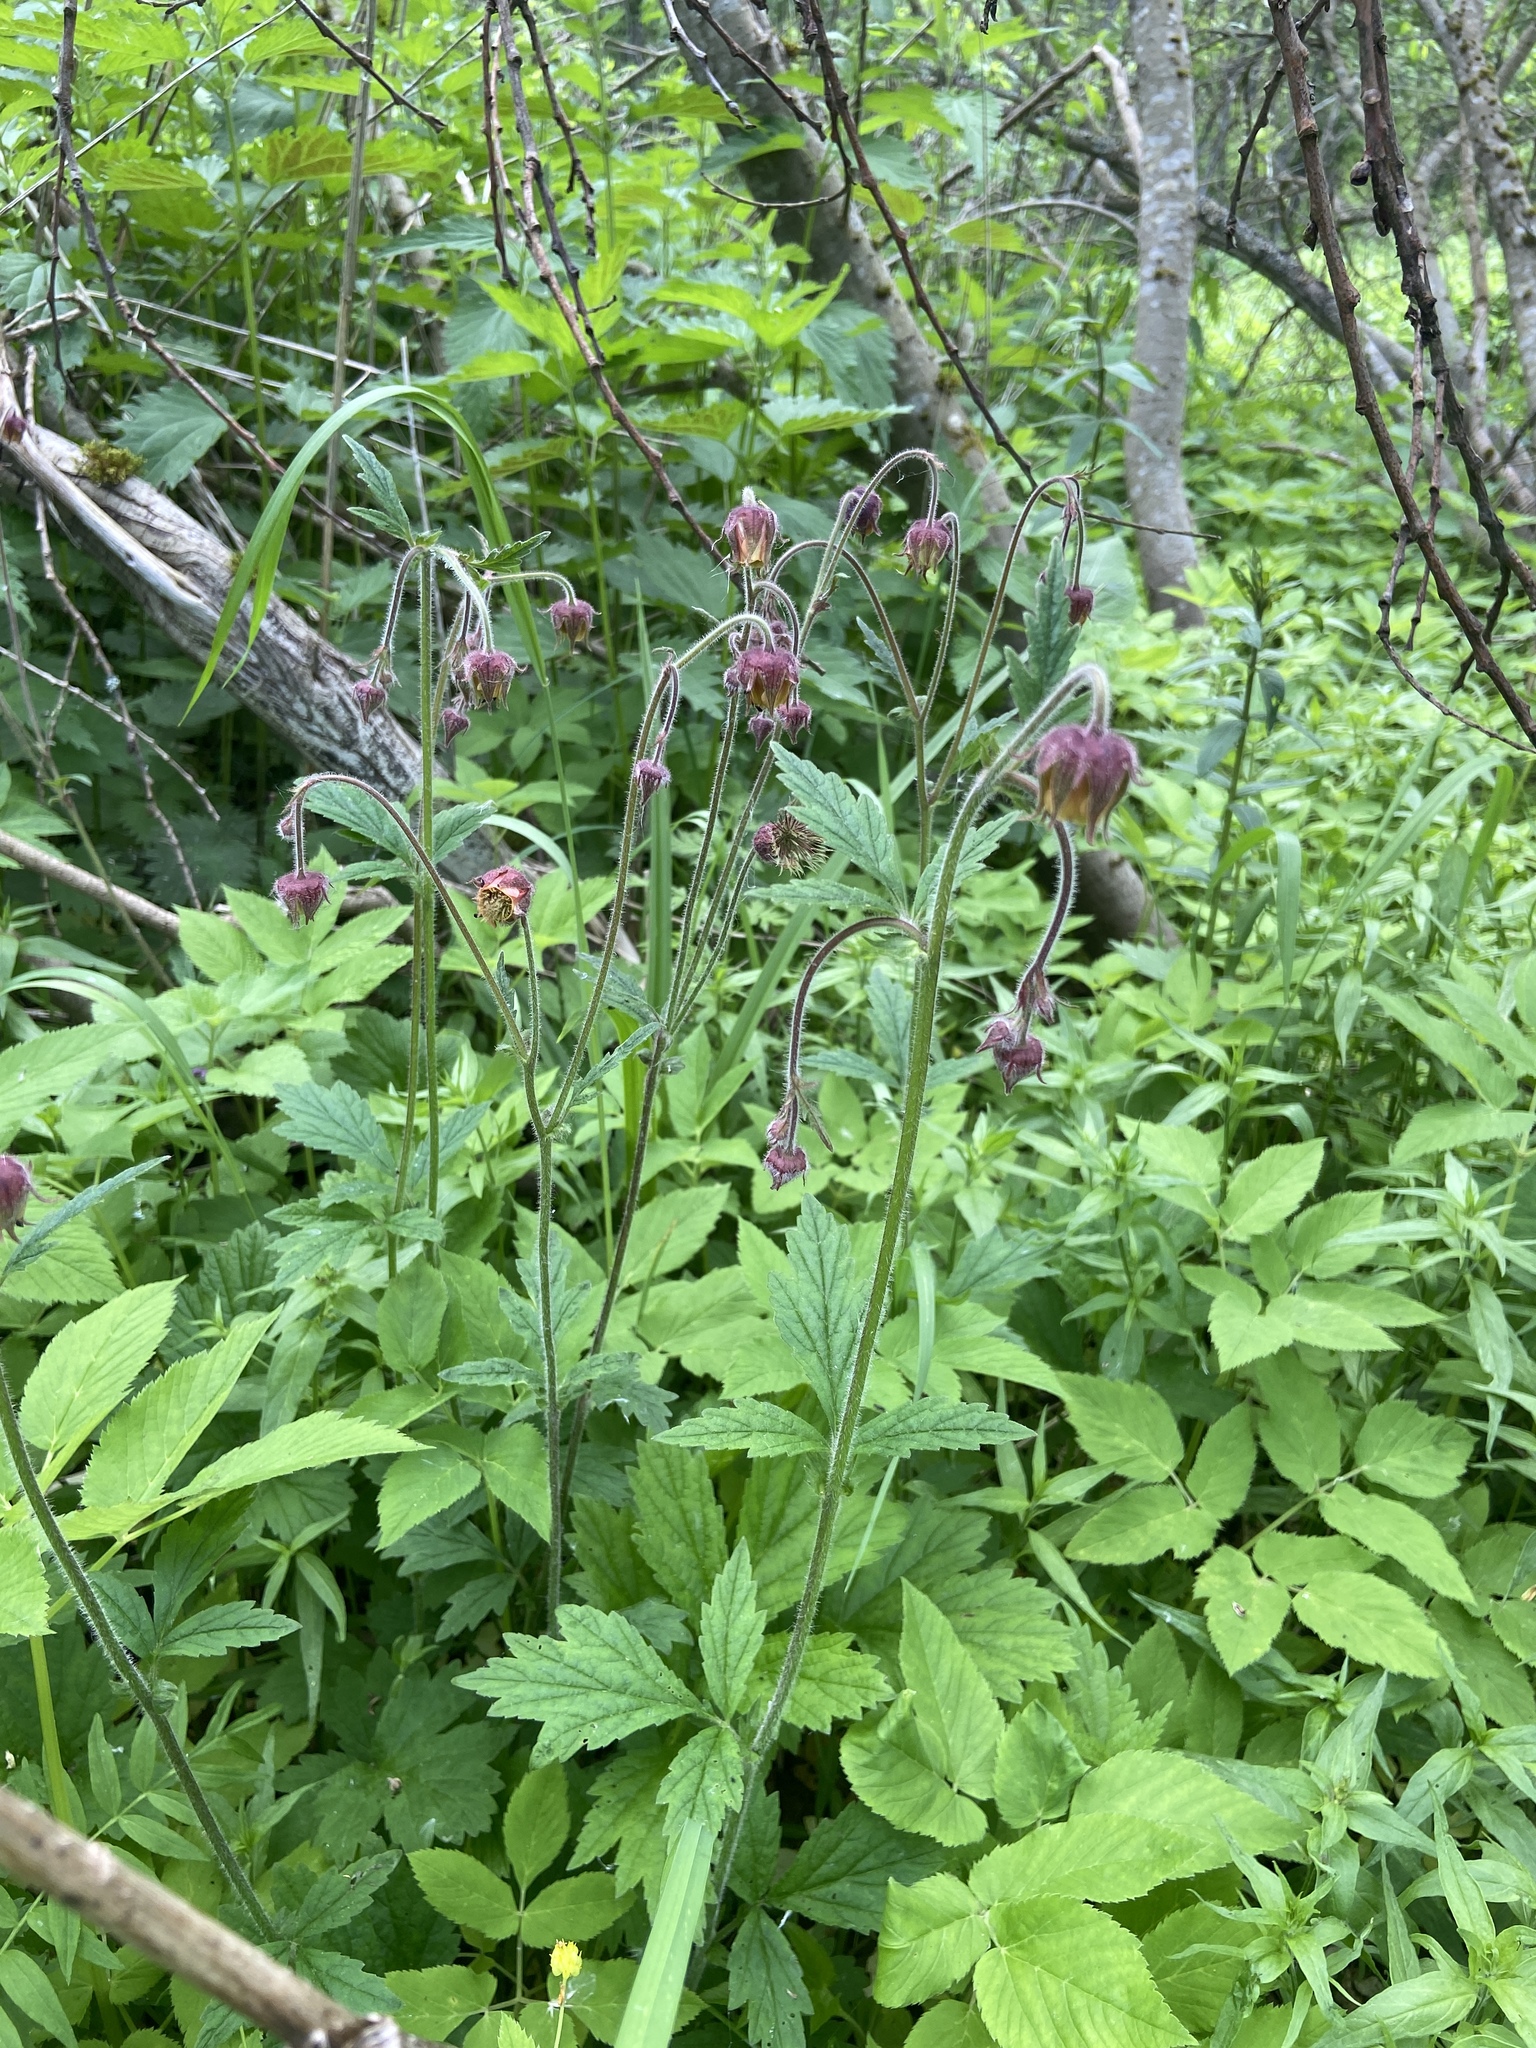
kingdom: Plantae
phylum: Tracheophyta
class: Magnoliopsida
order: Rosales
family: Rosaceae
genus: Geum
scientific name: Geum rivale
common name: Water avens
